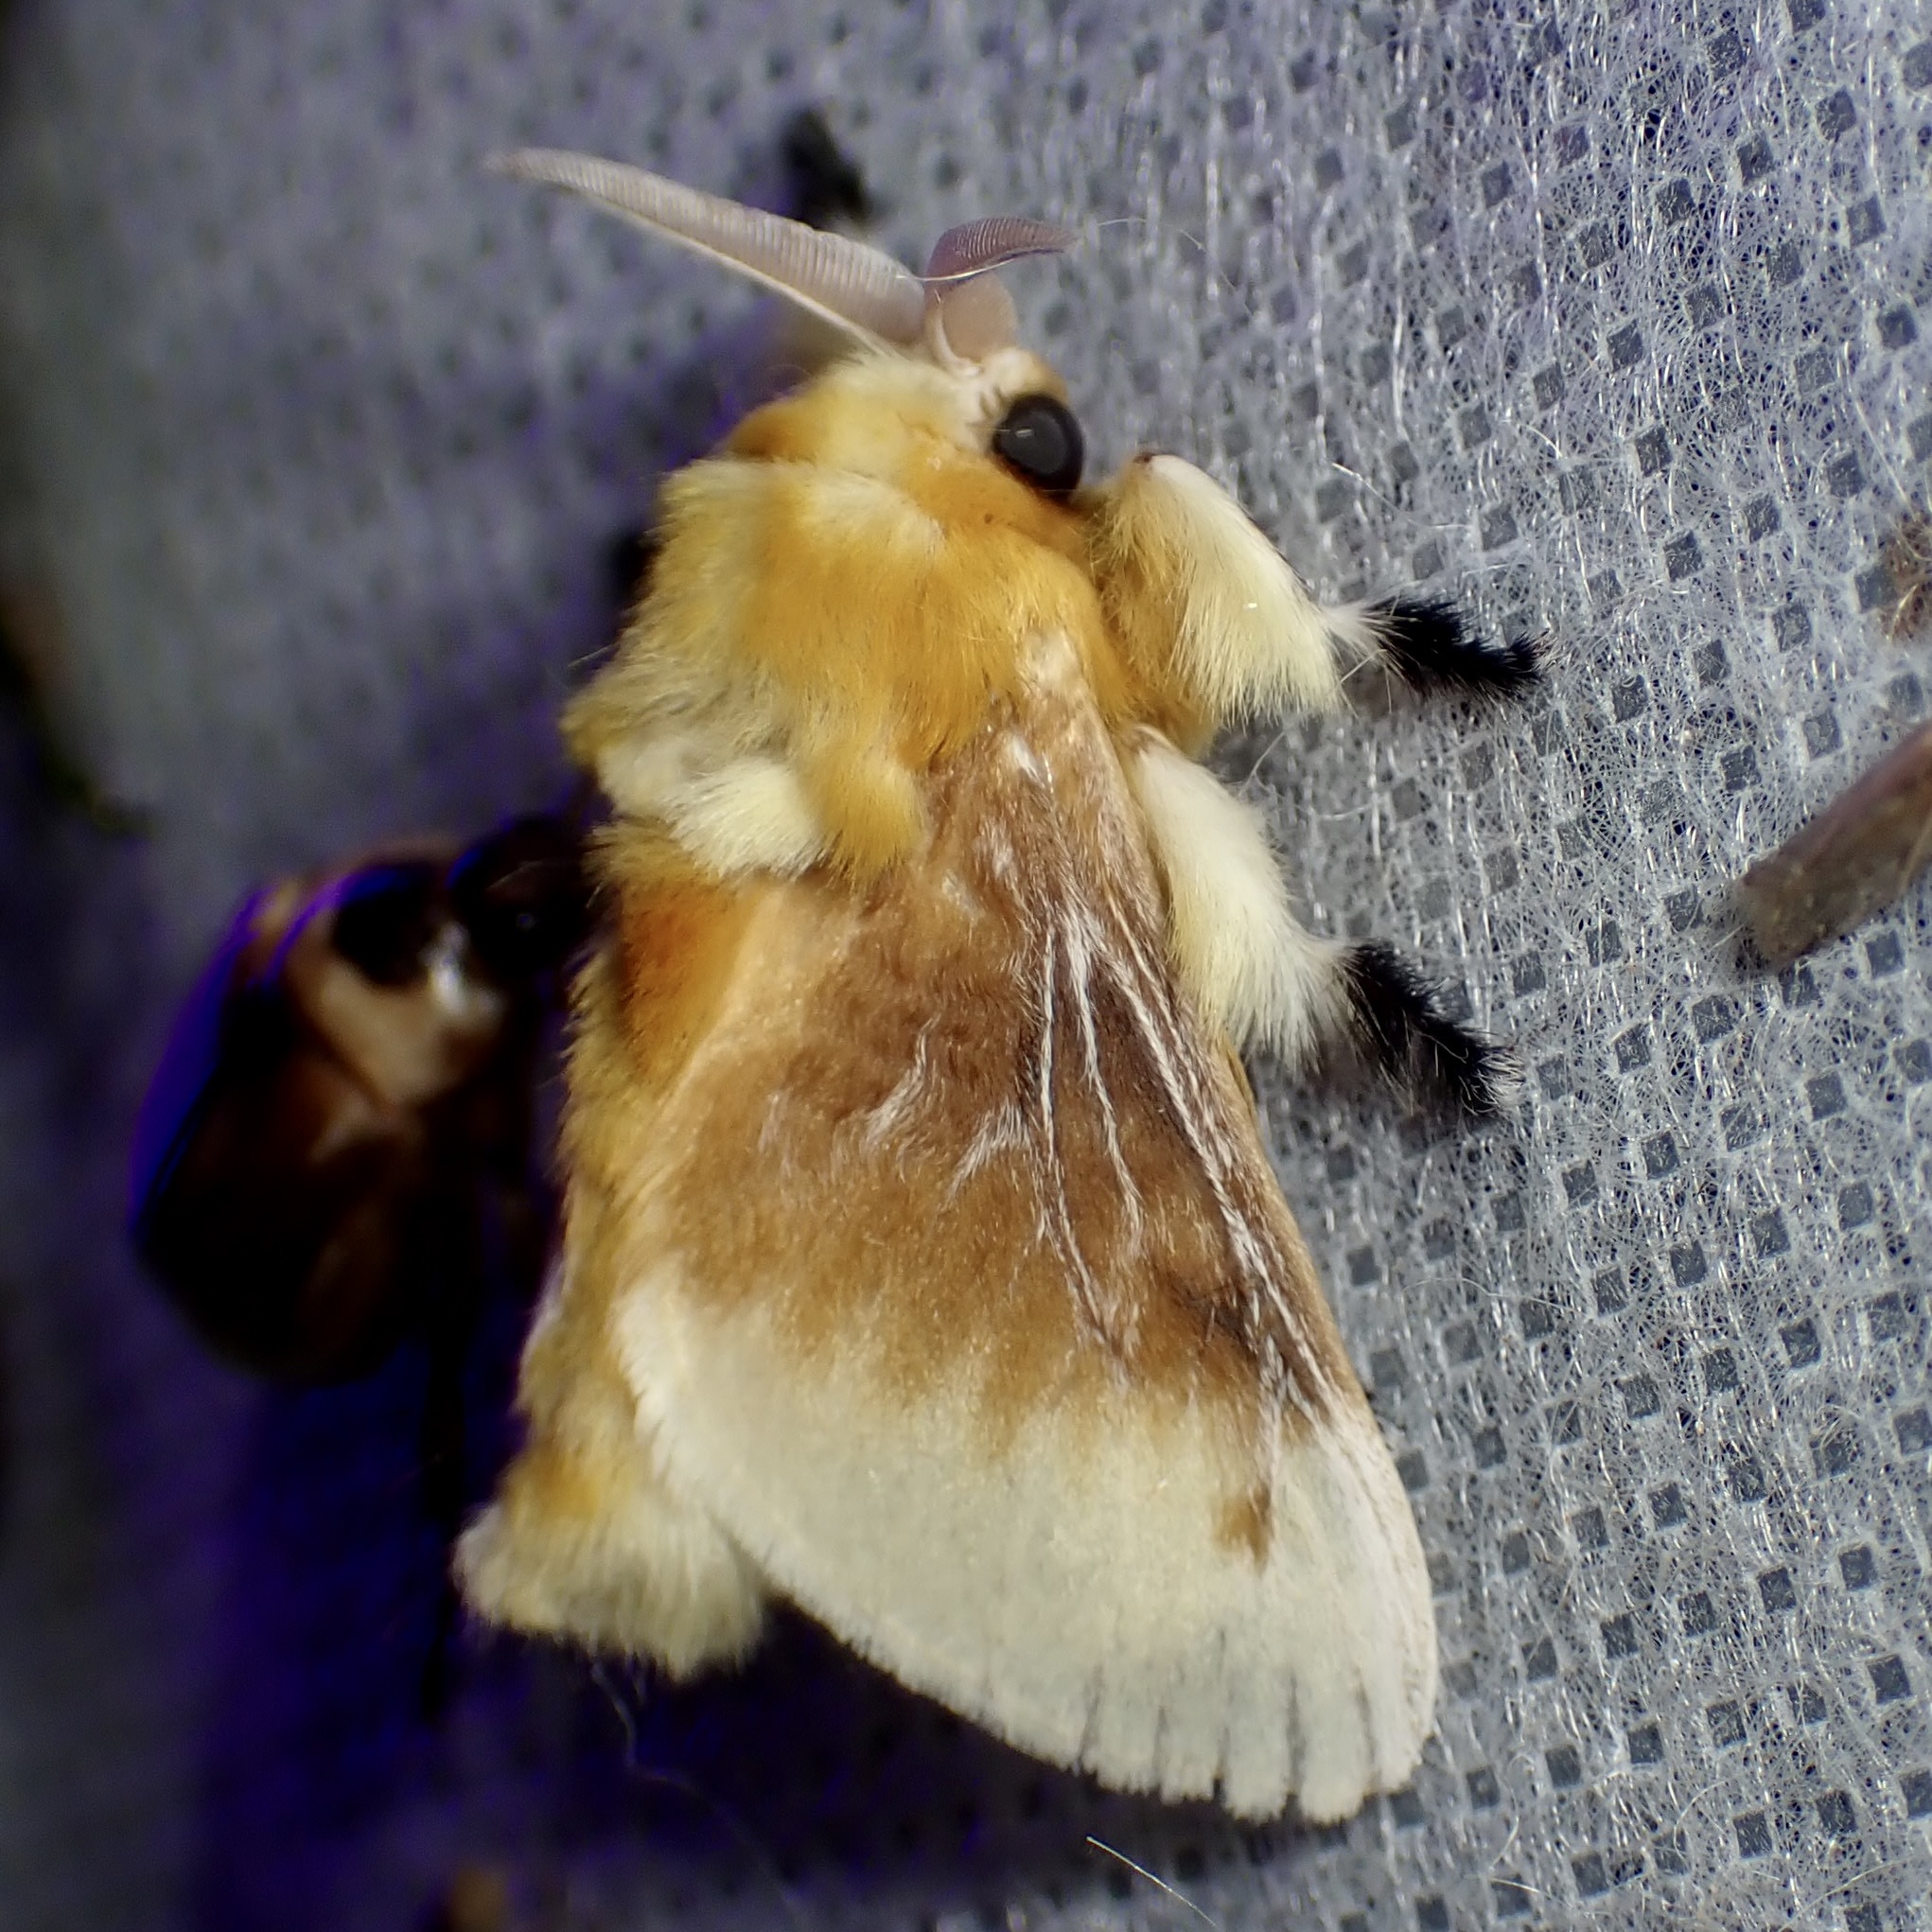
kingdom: Animalia
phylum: Arthropoda
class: Insecta
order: Lepidoptera
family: Megalopygidae
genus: Megalopyge
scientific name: Megalopyge opercularis
